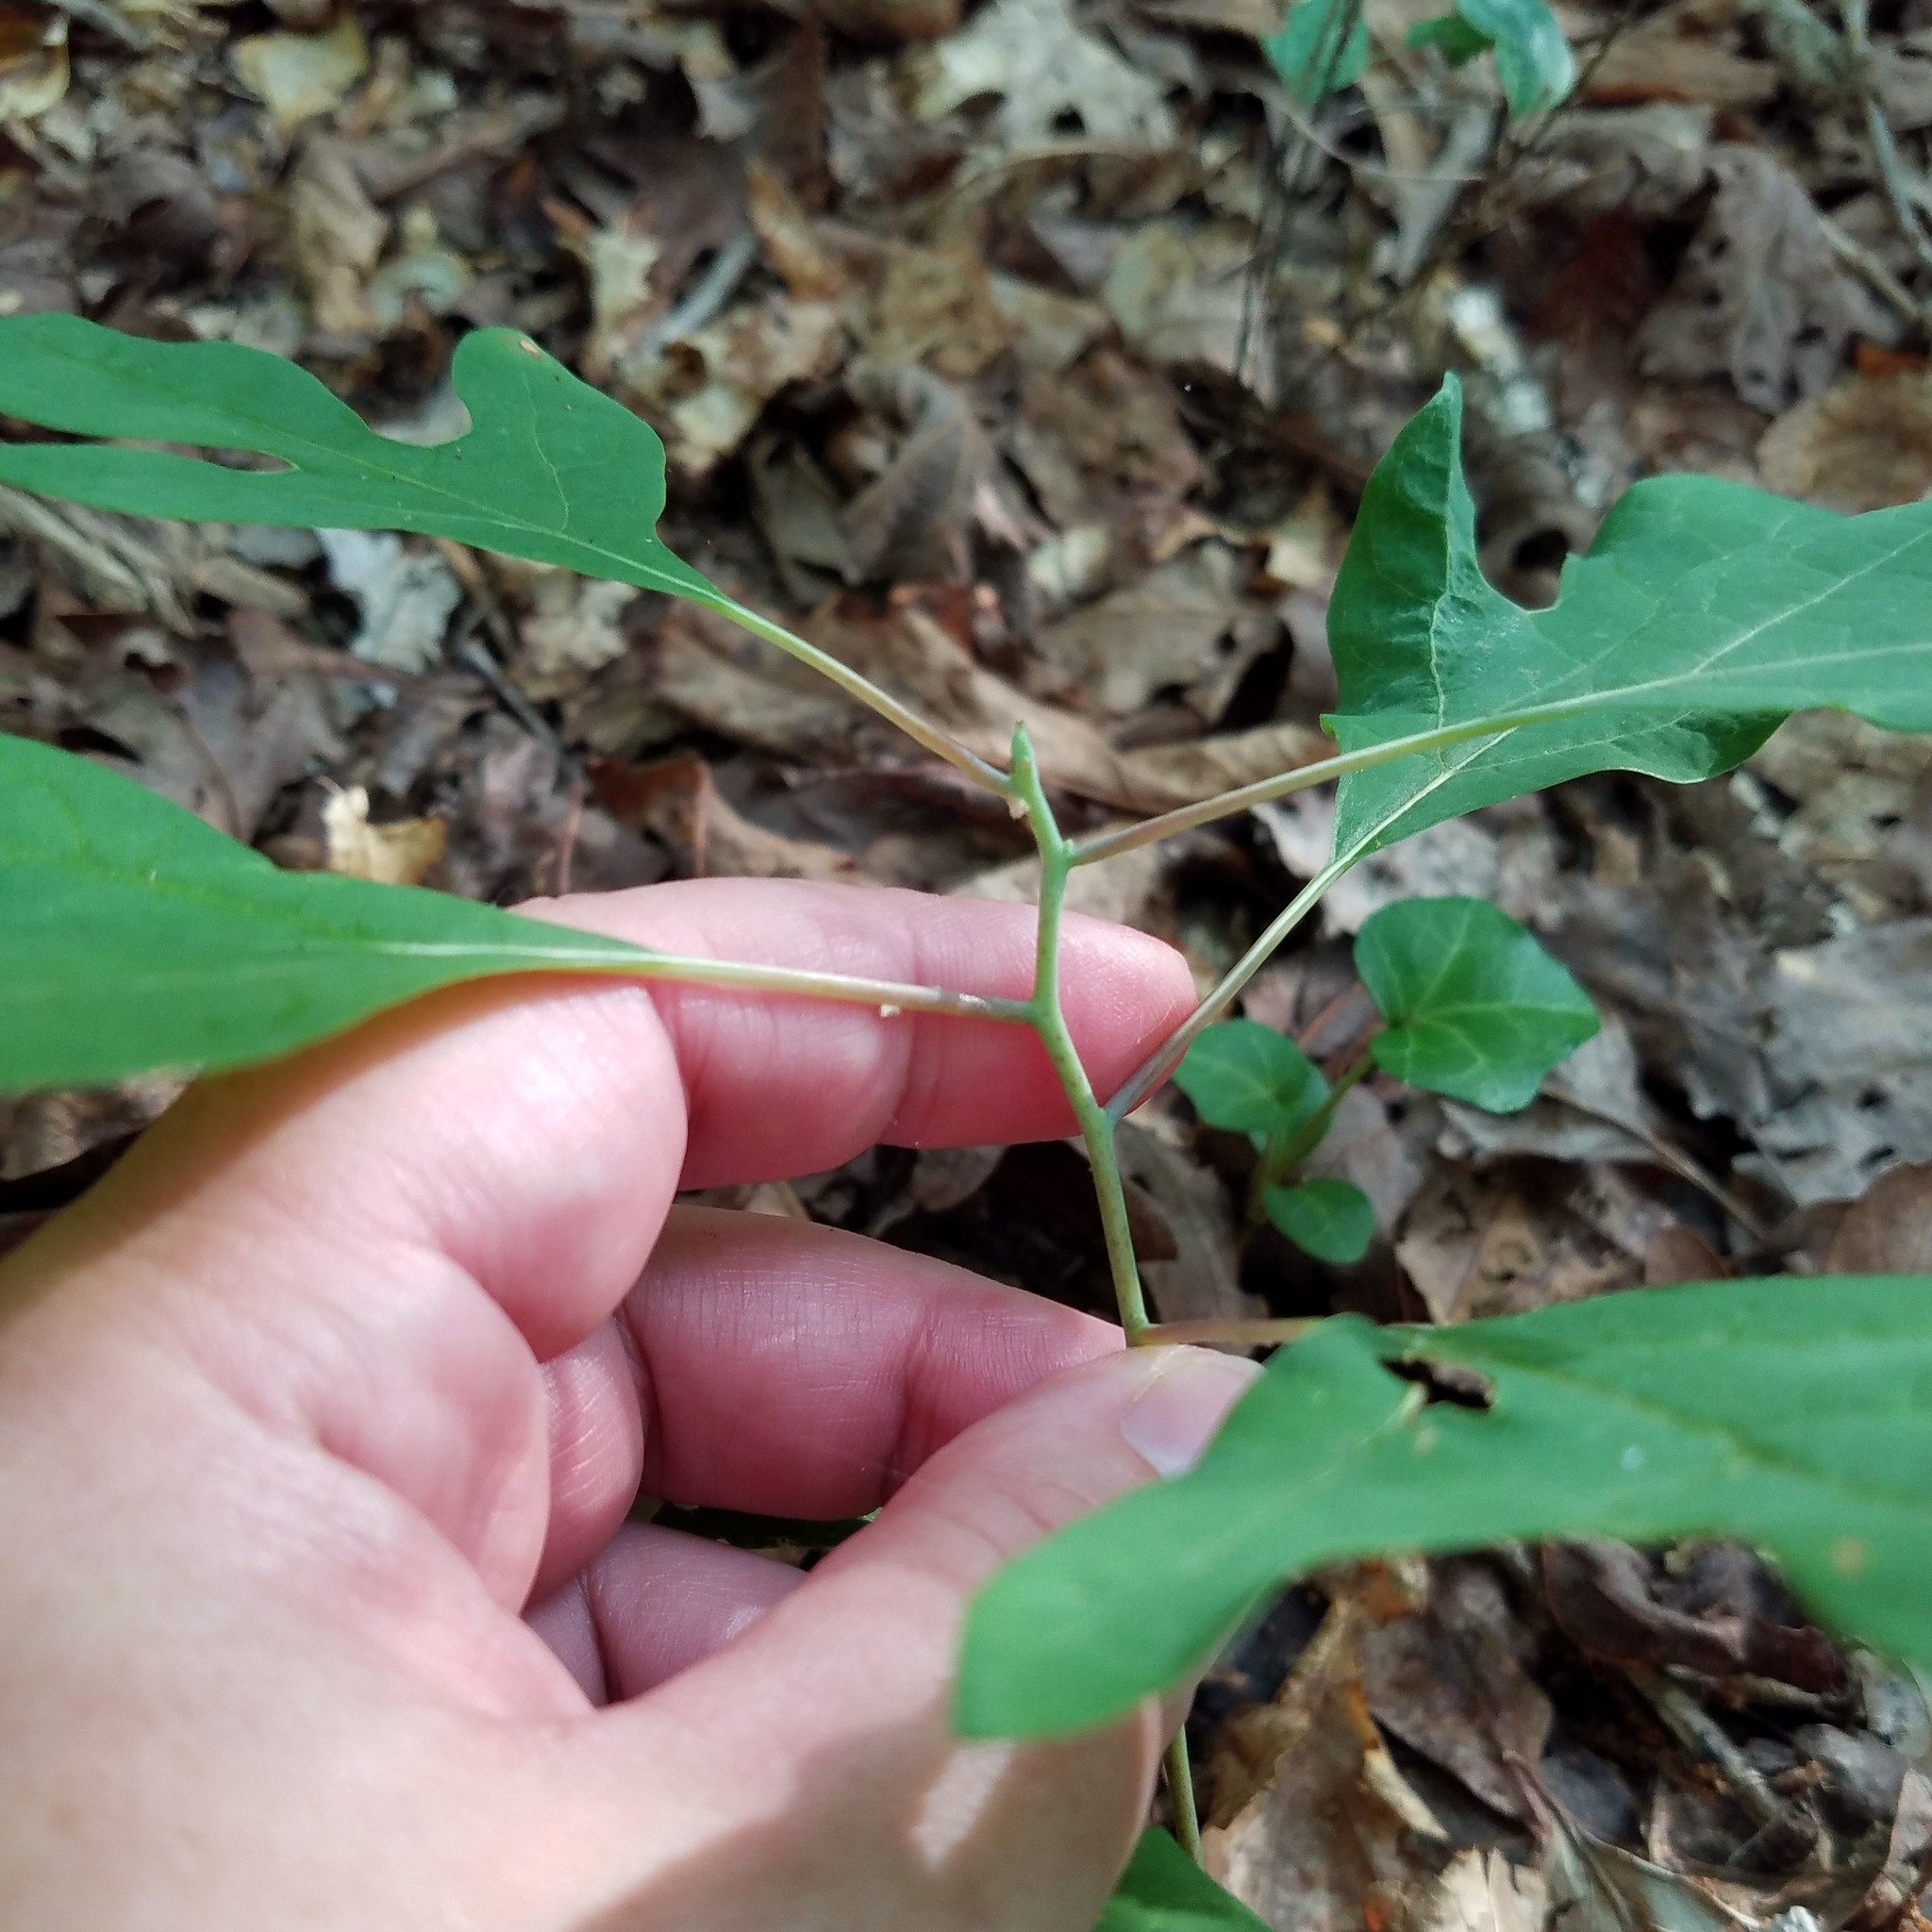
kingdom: Plantae
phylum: Tracheophyta
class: Magnoliopsida
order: Laurales
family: Lauraceae
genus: Sassafras
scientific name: Sassafras albidum
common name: Sassafras
